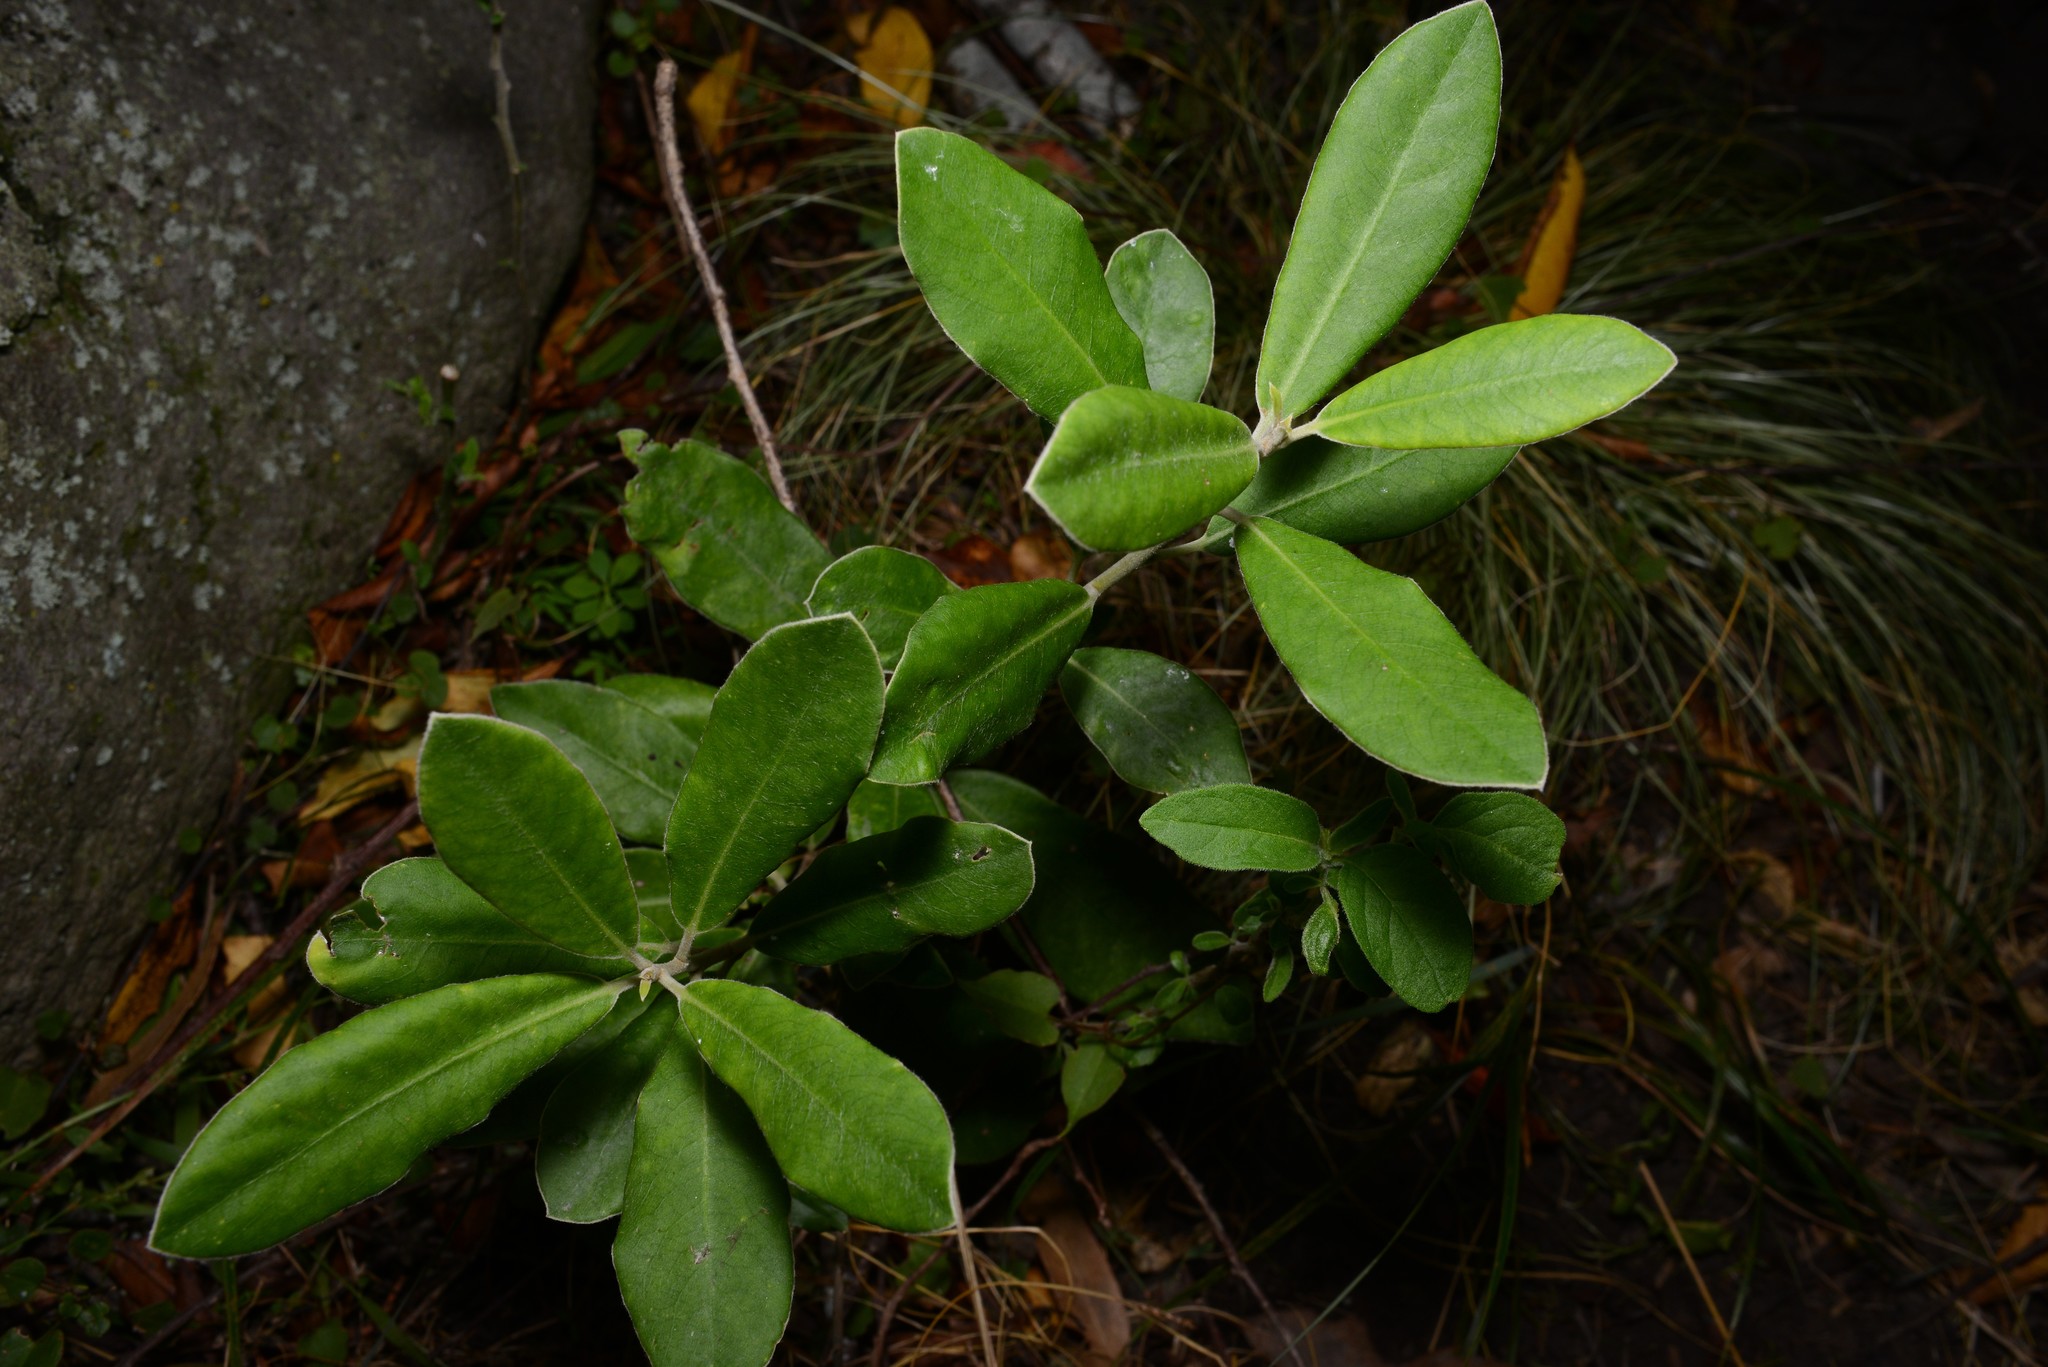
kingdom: Plantae
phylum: Tracheophyta
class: Magnoliopsida
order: Apiales
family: Pittosporaceae
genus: Pittosporum
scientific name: Pittosporum ralphii
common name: Ralph's desertwillow
